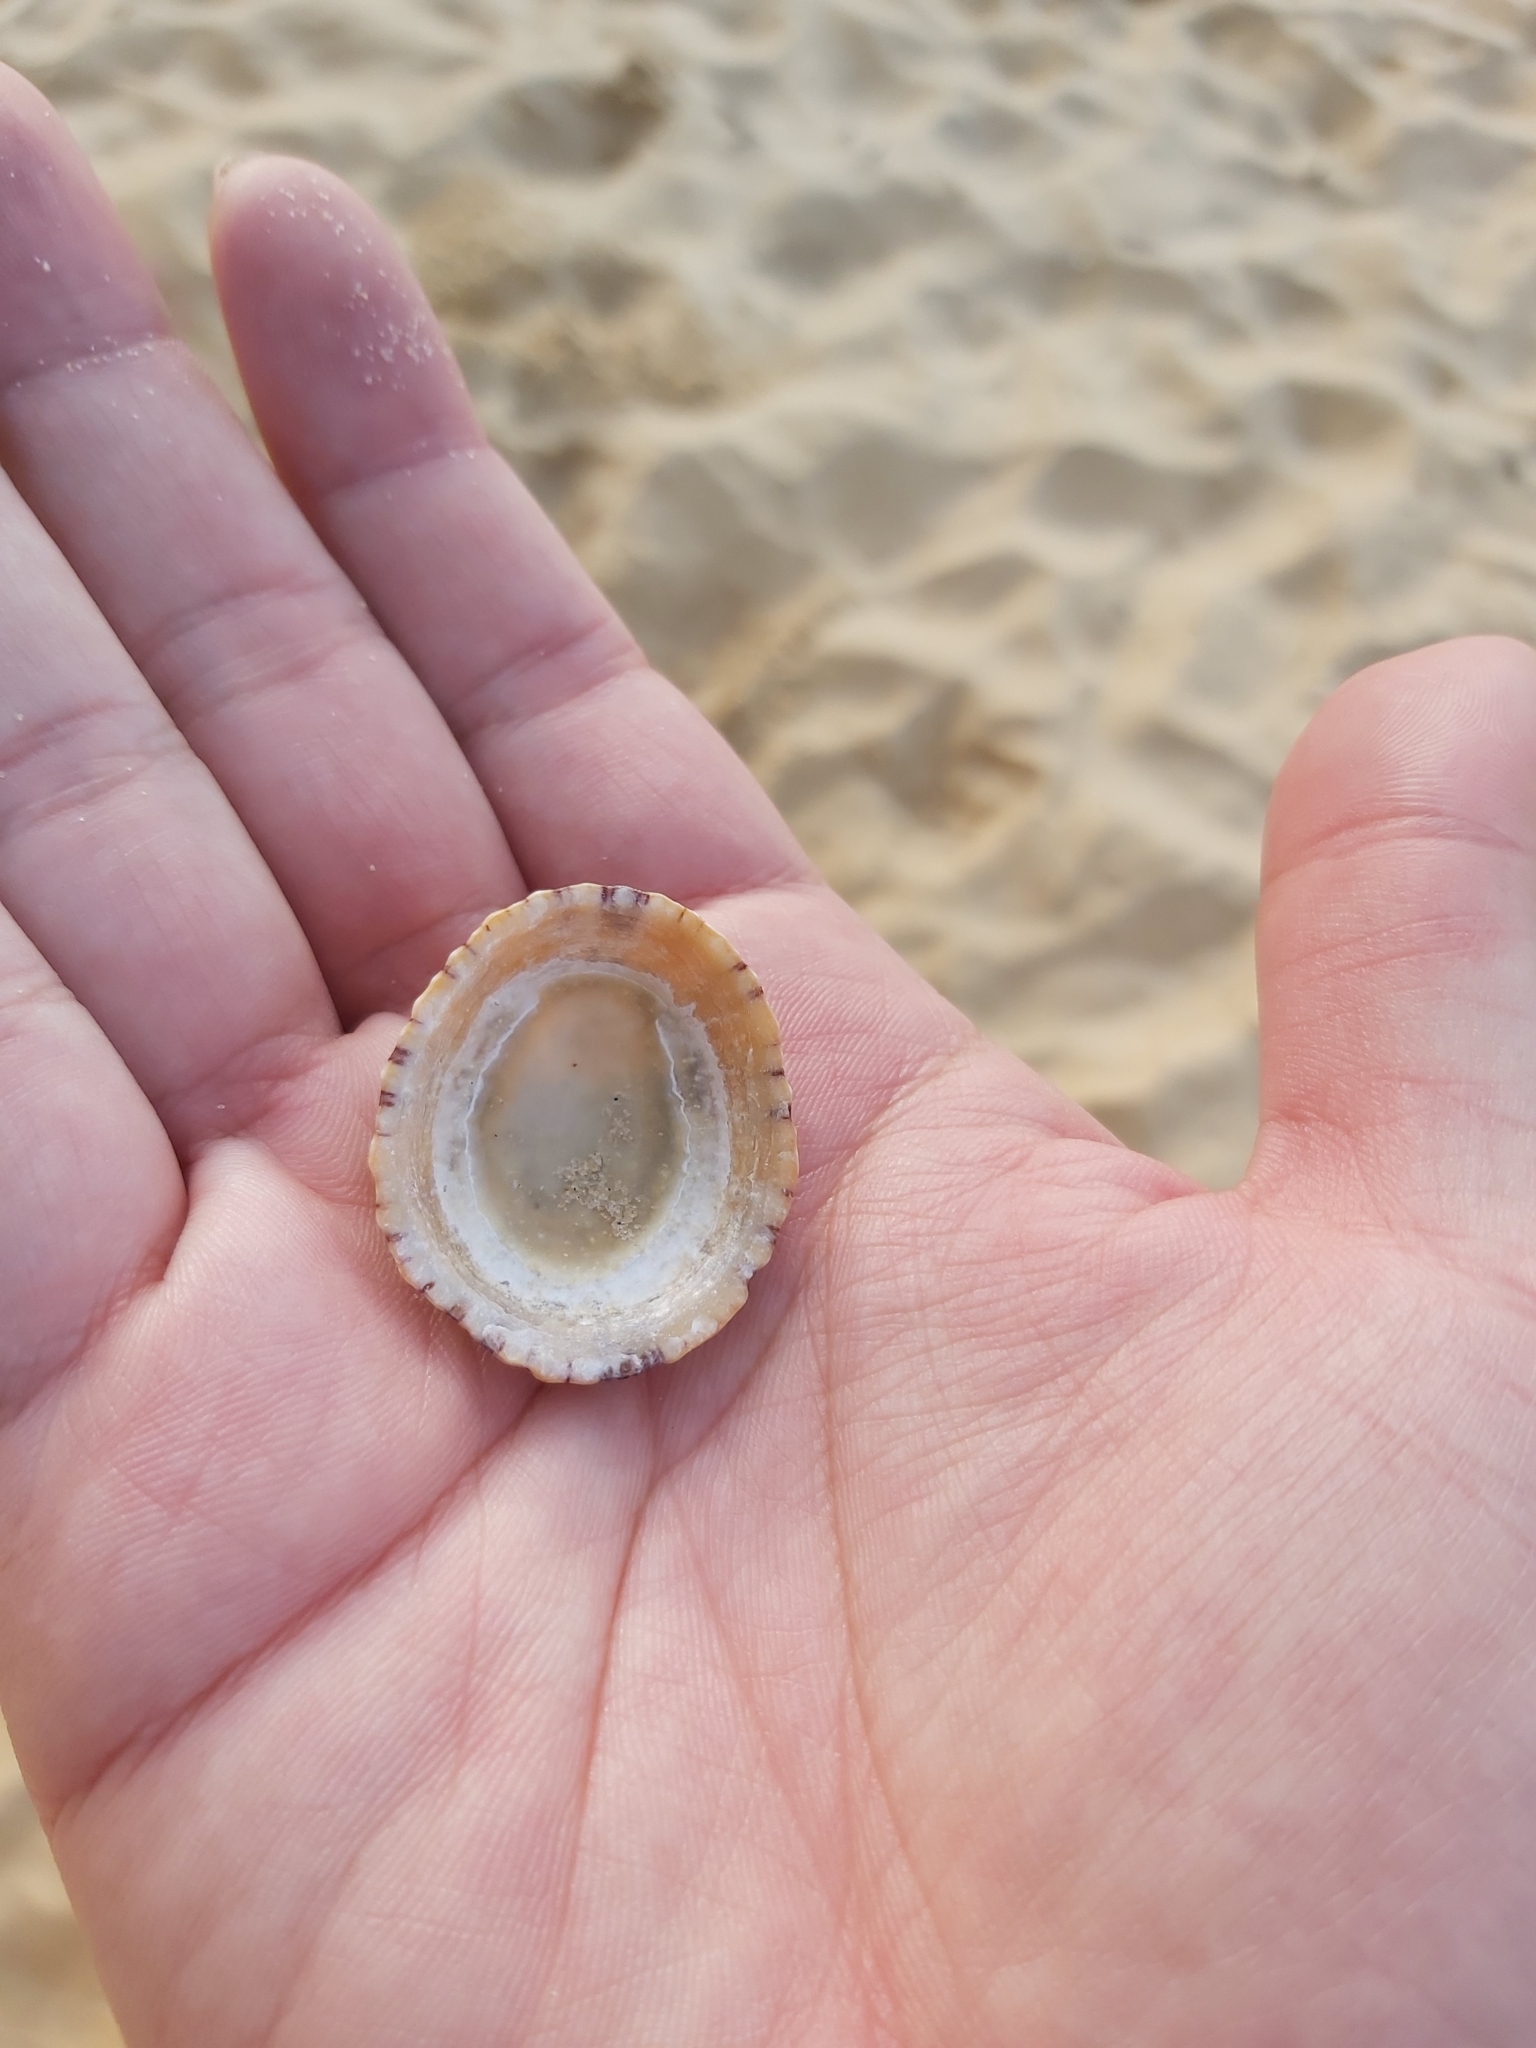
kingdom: Animalia
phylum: Mollusca
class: Gastropoda
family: Nacellidae
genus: Cellana
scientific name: Cellana tramoserica
